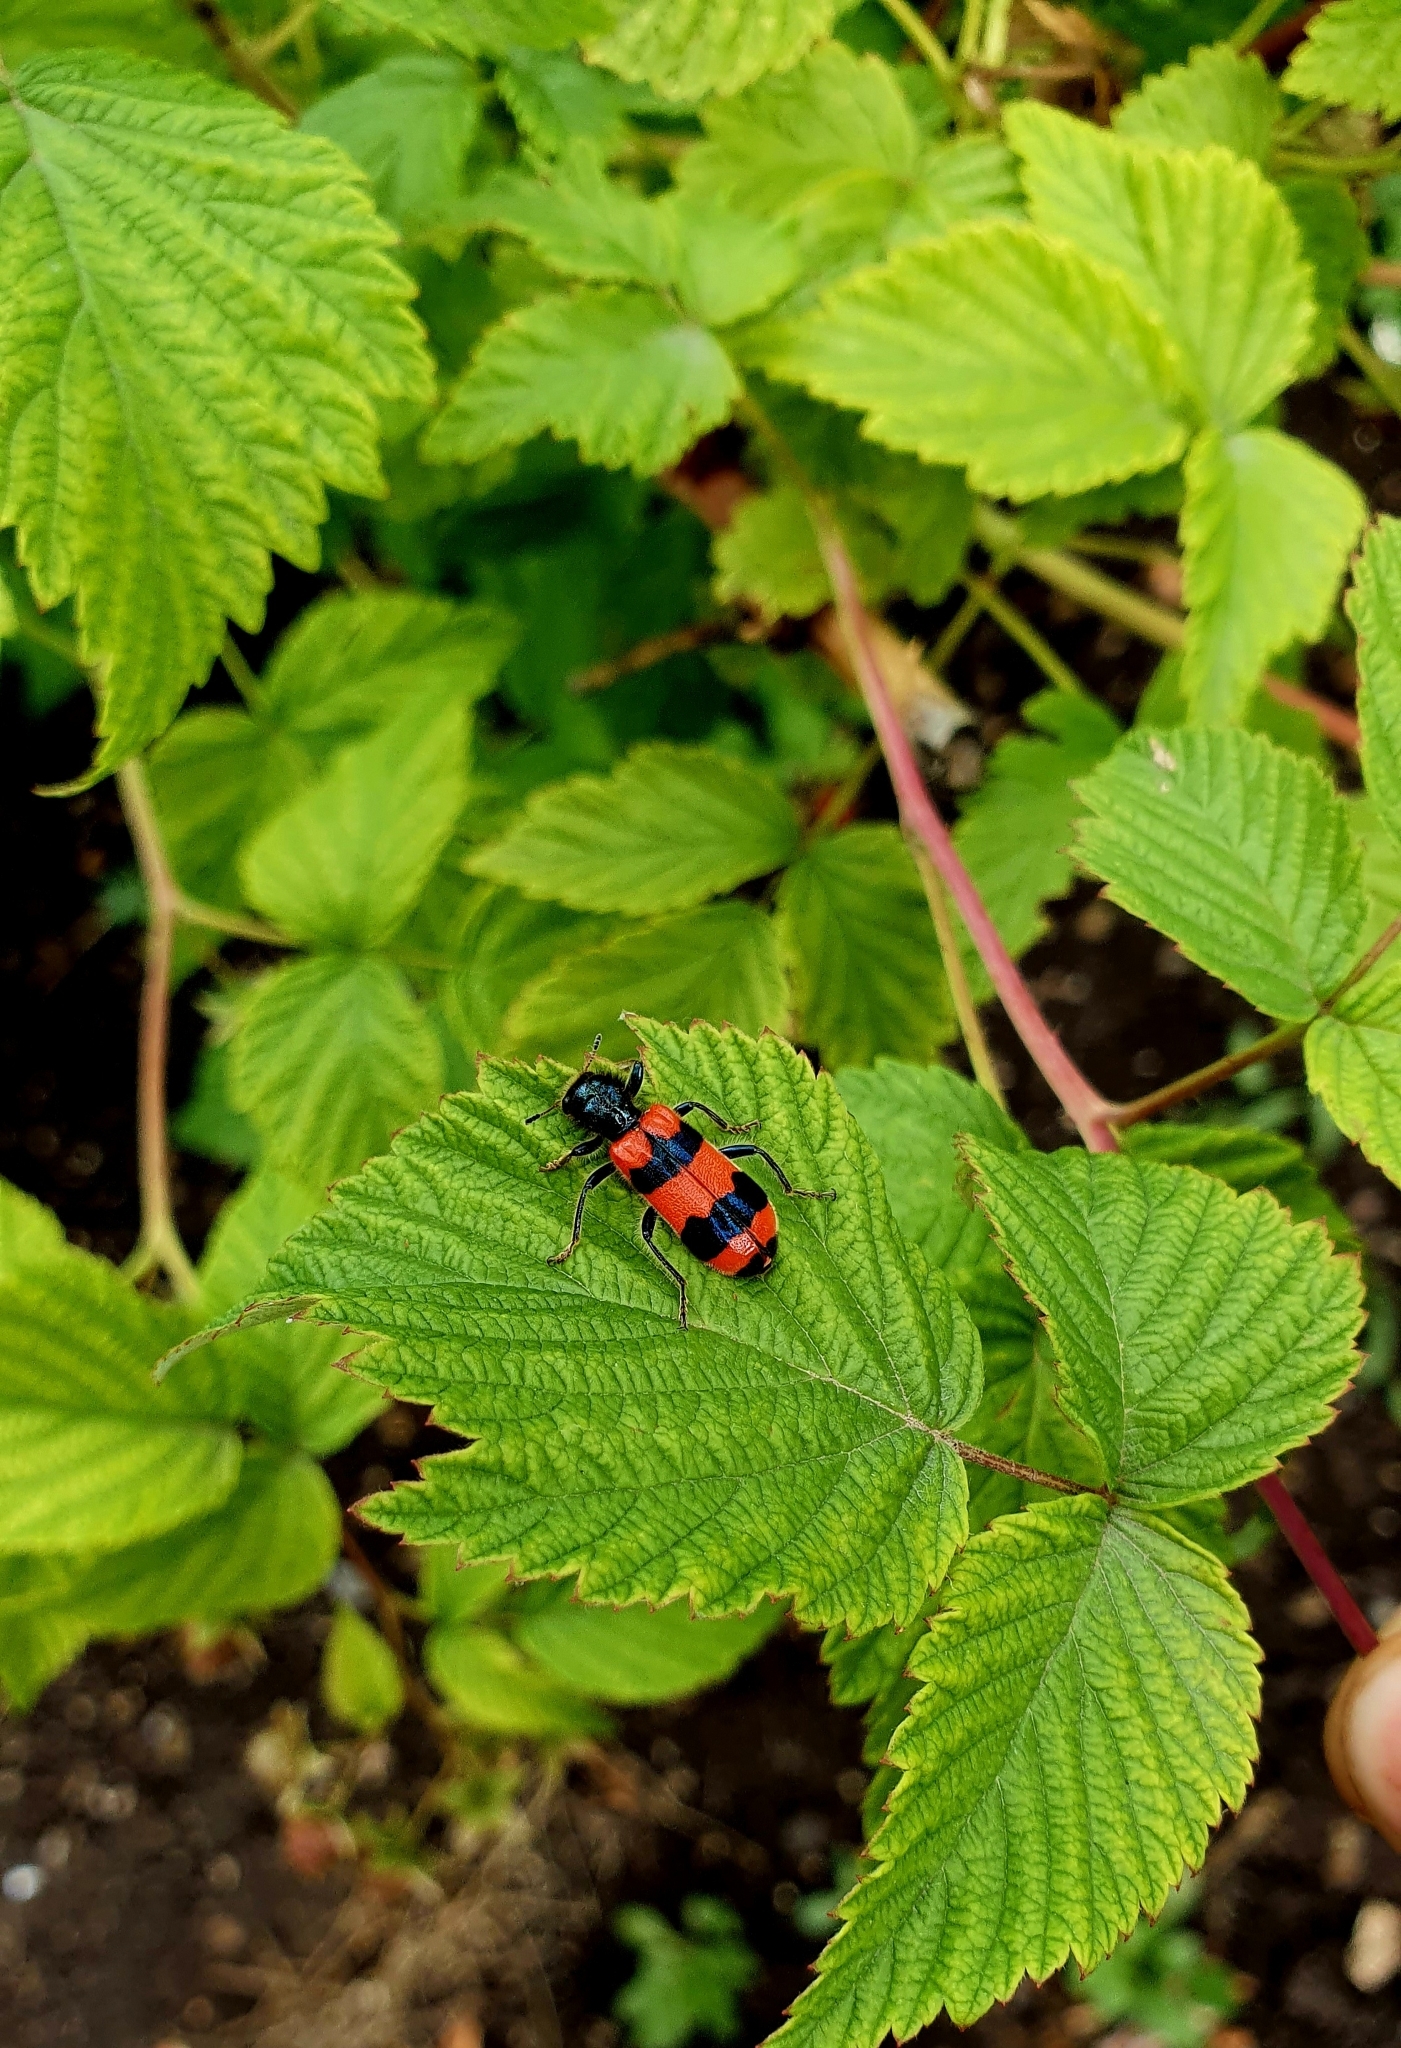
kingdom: Animalia
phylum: Arthropoda
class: Insecta
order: Coleoptera
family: Cleridae
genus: Trichodes
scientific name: Trichodes apiarius
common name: Bee-eating beetle
